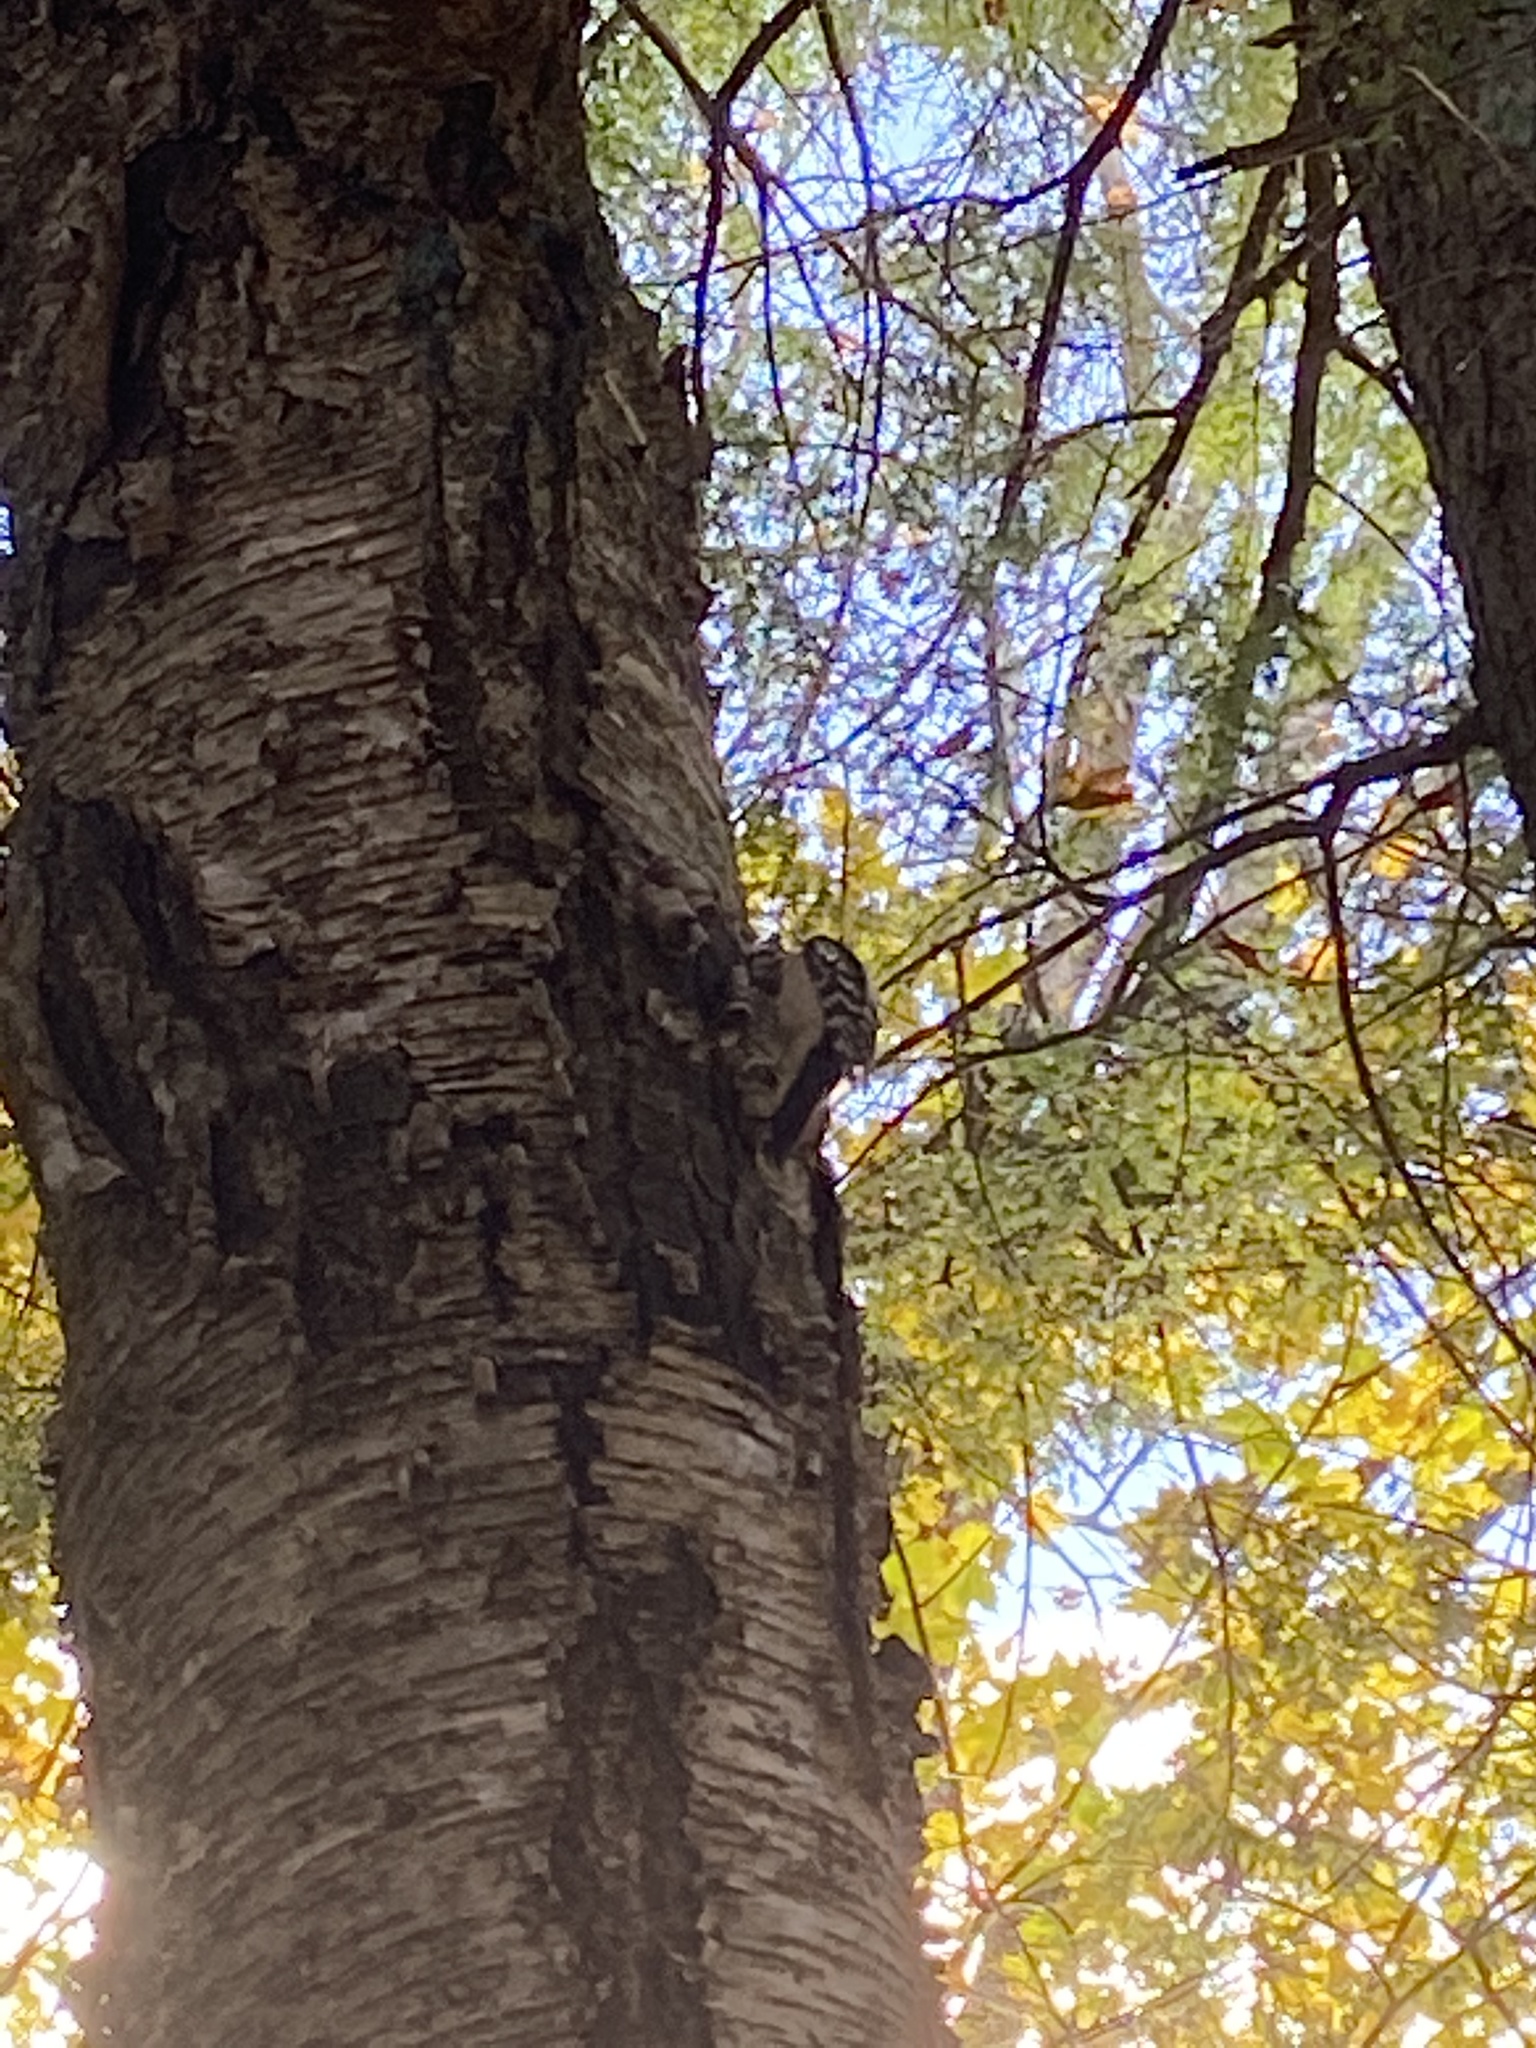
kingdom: Animalia
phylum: Chordata
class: Aves
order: Piciformes
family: Picidae
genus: Dryobates
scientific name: Dryobates
